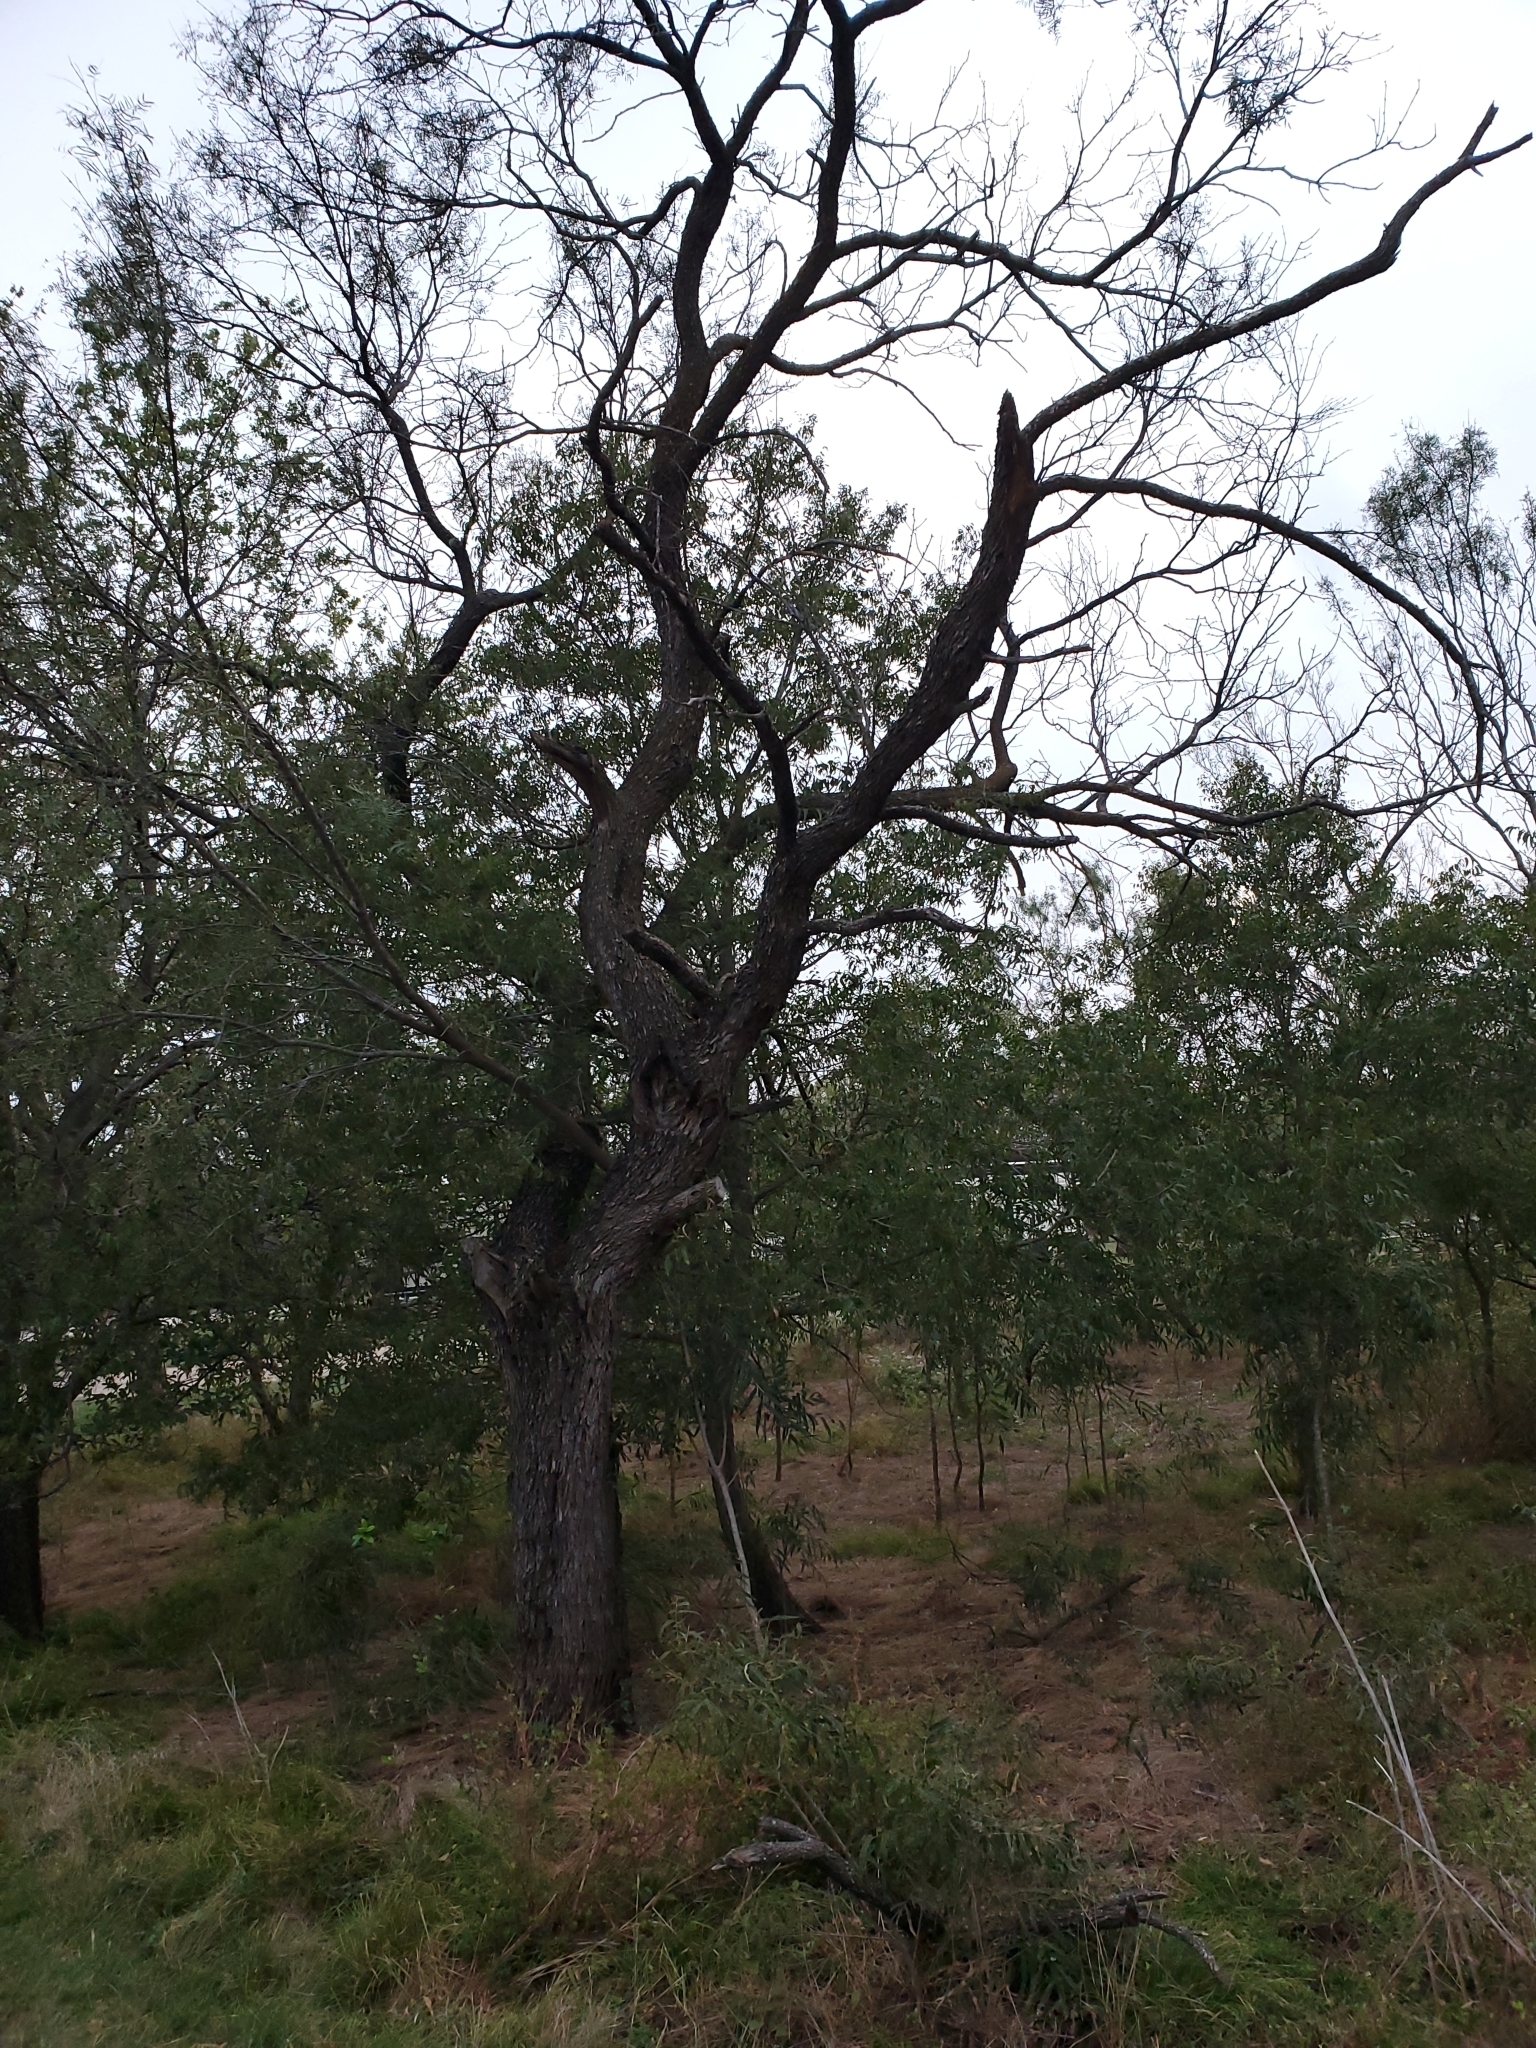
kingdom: Plantae
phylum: Tracheophyta
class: Magnoliopsida
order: Fabales
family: Fabaceae
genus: Prosopis
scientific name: Prosopis glandulosa
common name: Honey mesquite
